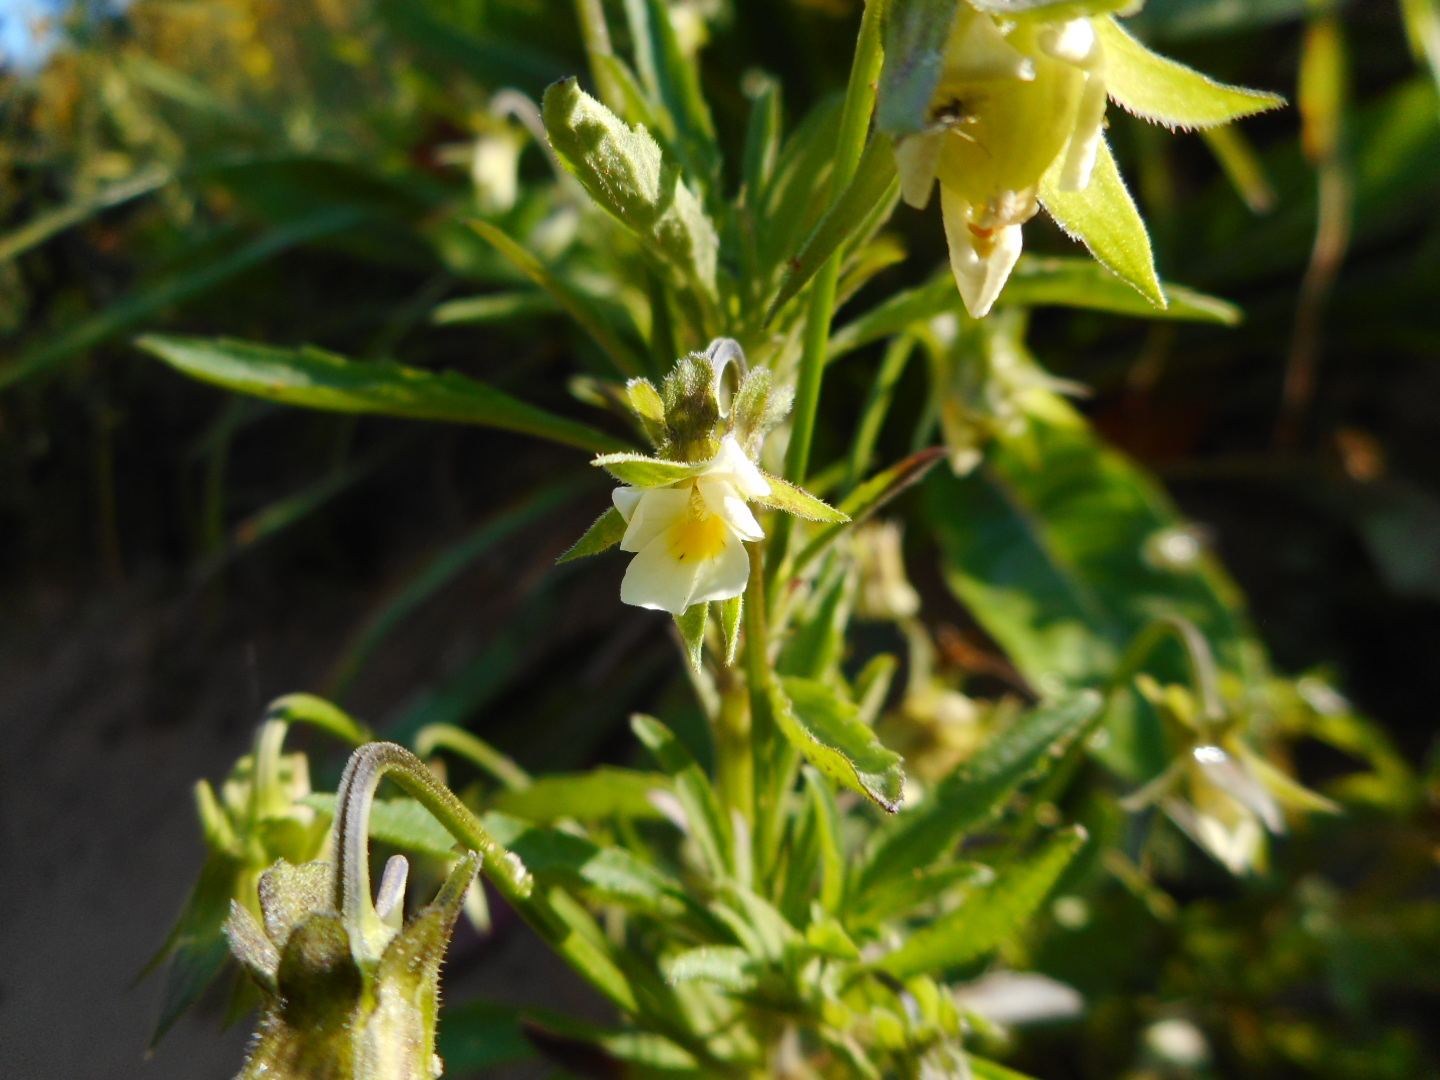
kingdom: Plantae
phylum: Tracheophyta
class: Magnoliopsida
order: Malpighiales
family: Violaceae
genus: Viola
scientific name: Viola arvensis
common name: Field pansy
